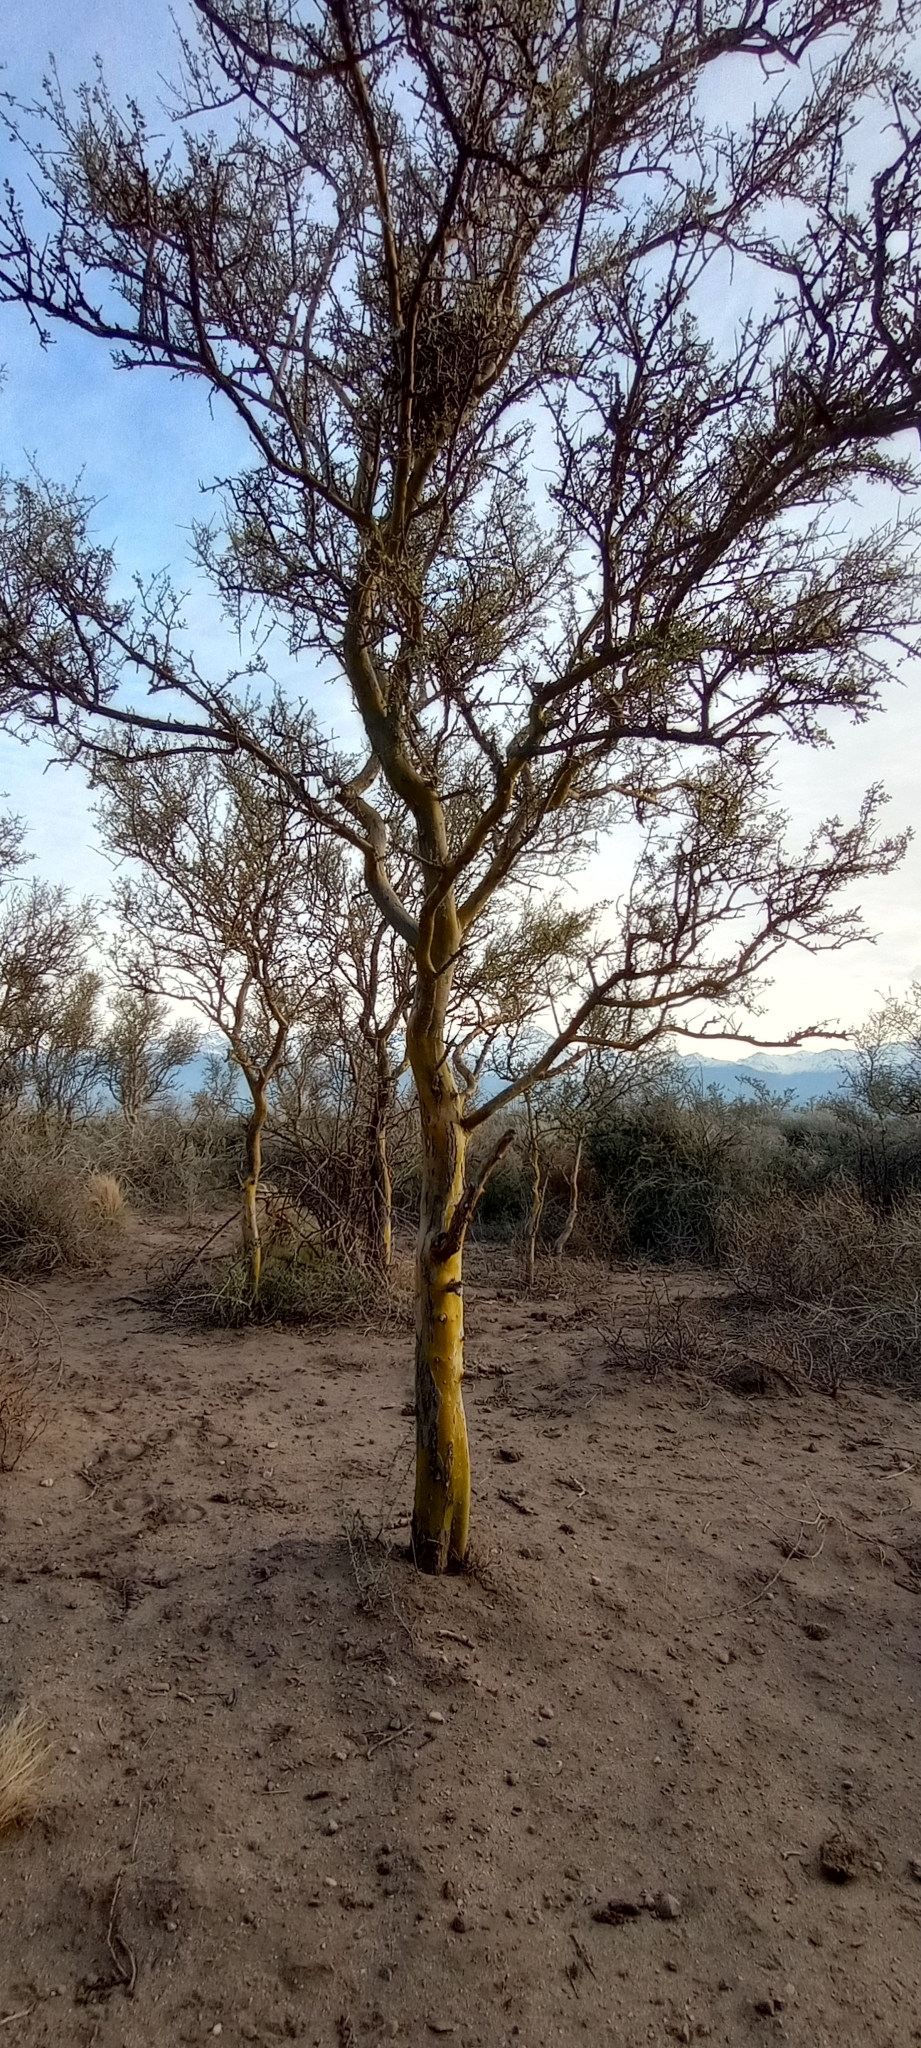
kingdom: Plantae
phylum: Tracheophyta
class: Magnoliopsida
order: Fabales
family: Fabaceae
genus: Geoffroea
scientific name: Geoffroea decorticans
